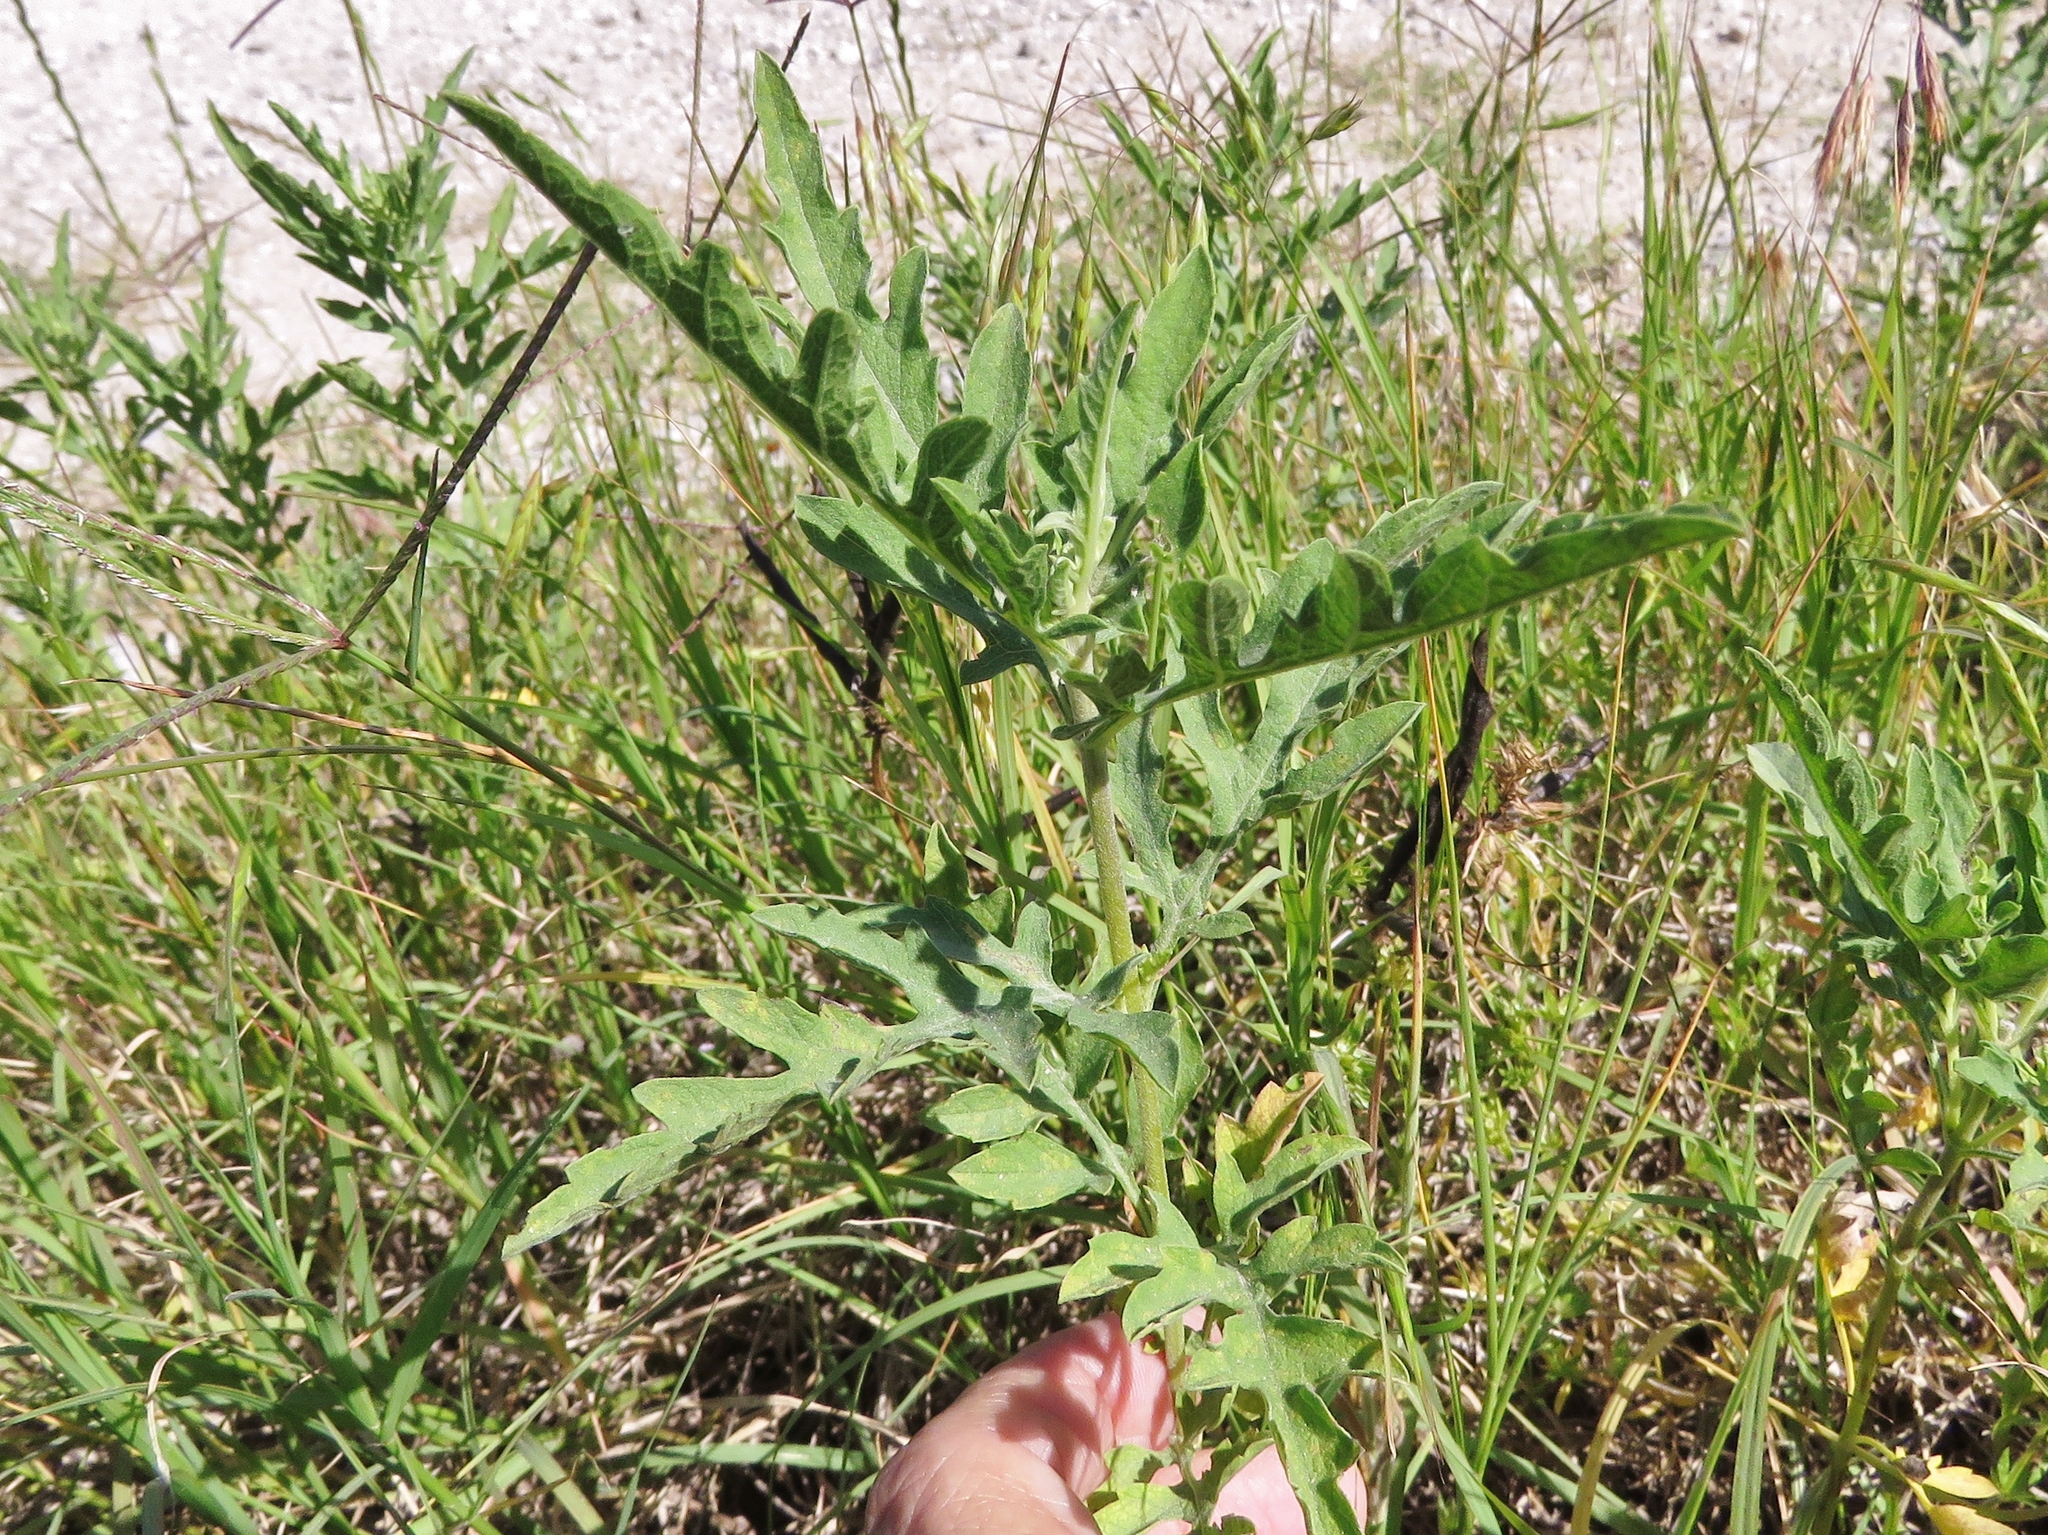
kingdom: Plantae
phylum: Tracheophyta
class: Magnoliopsida
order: Asterales
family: Asteraceae
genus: Ambrosia
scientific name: Ambrosia psilostachya
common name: Perennial ragweed
